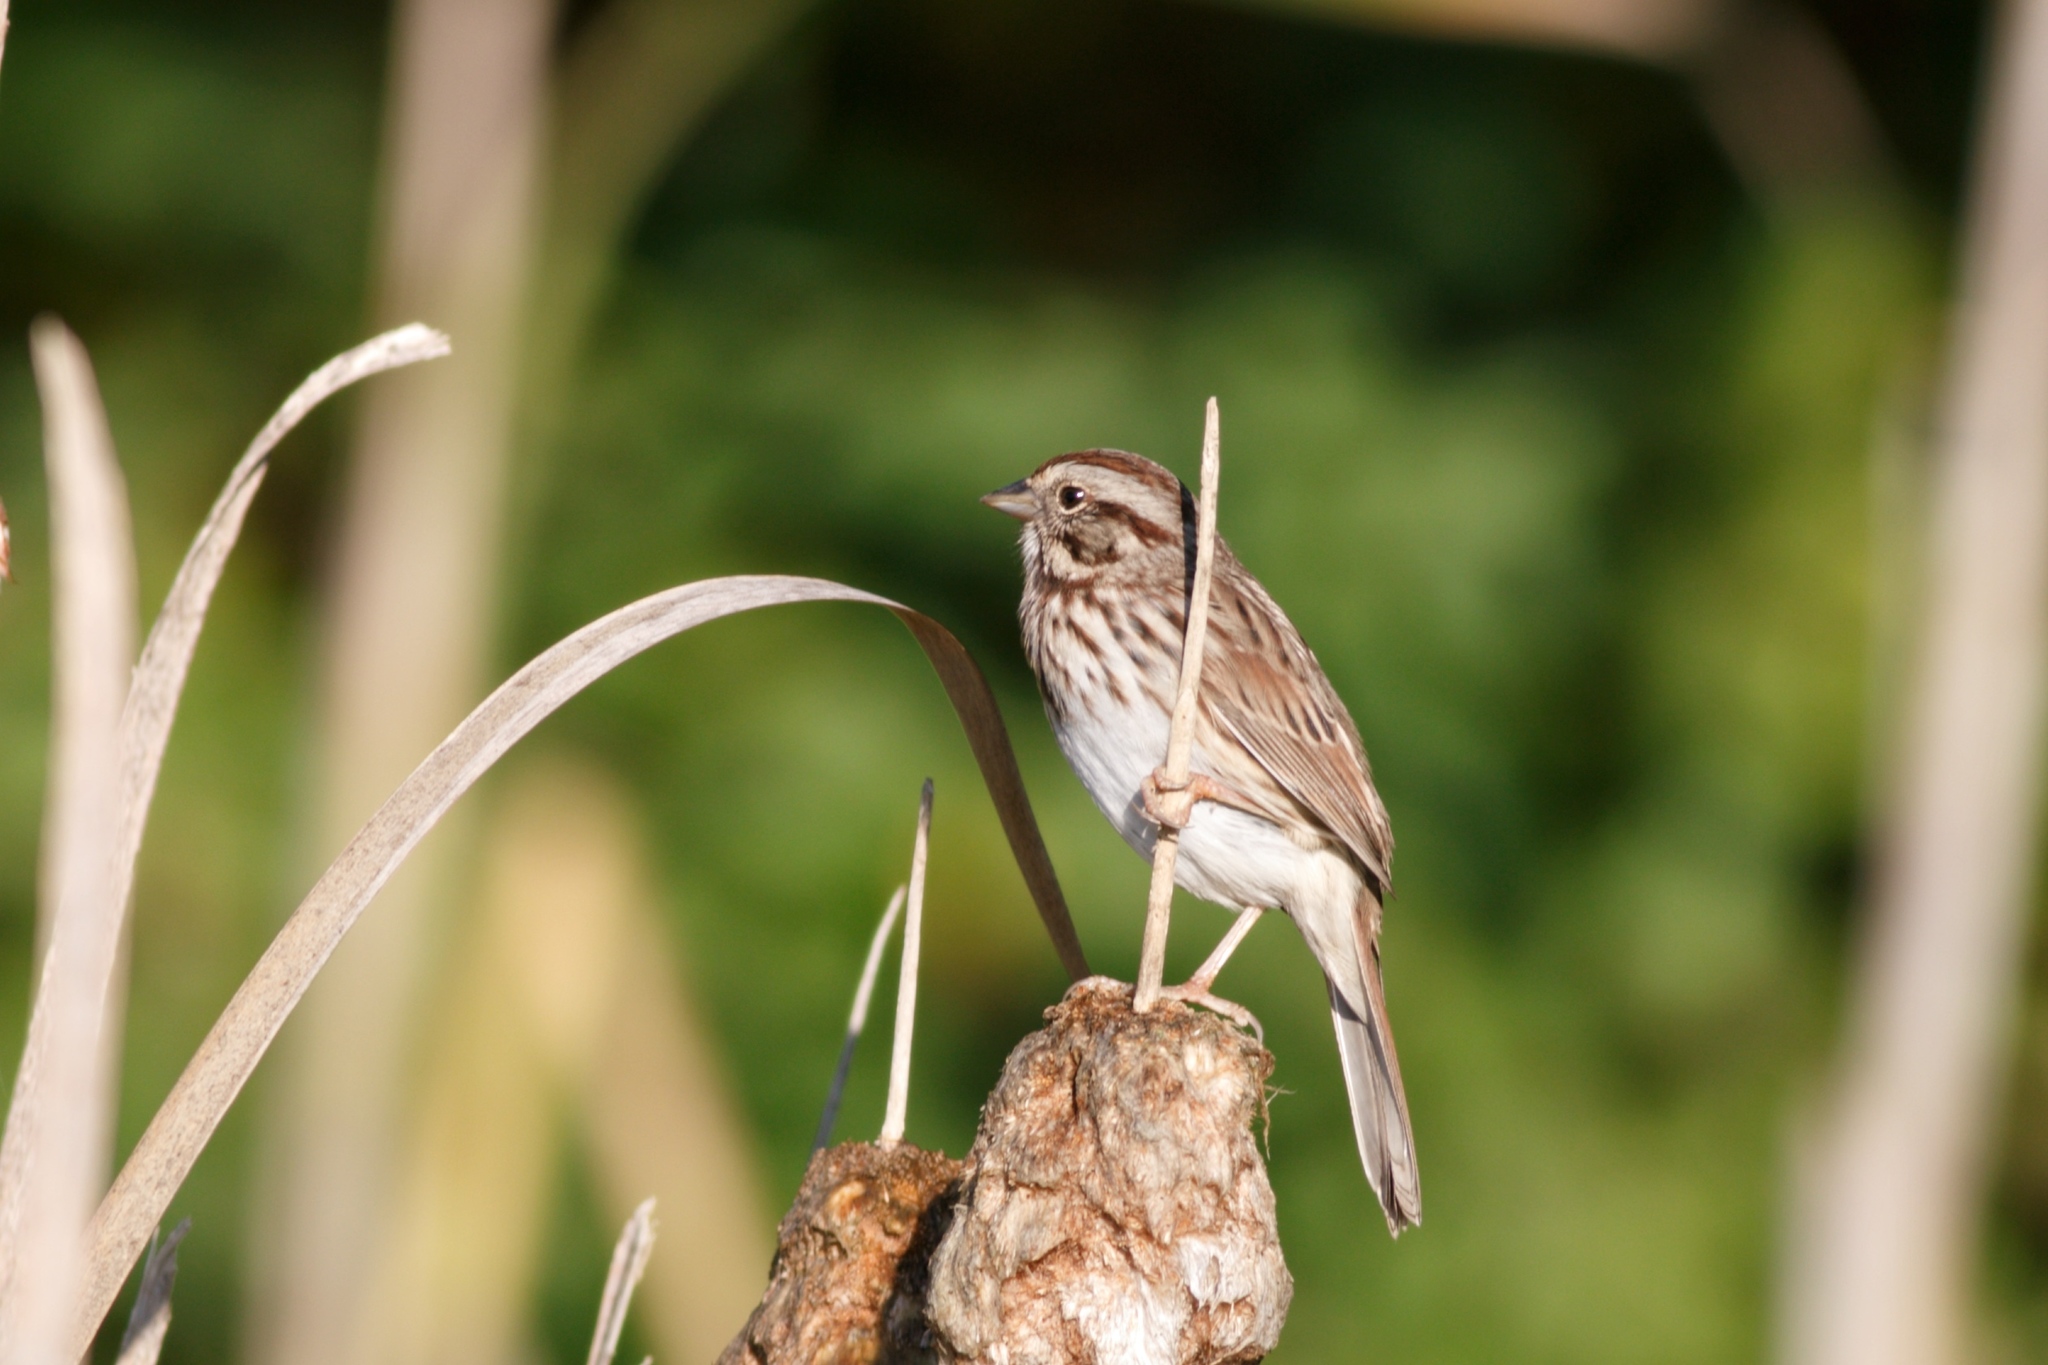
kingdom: Animalia
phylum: Chordata
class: Aves
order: Passeriformes
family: Passerellidae
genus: Melospiza
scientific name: Melospiza melodia
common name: Song sparrow
